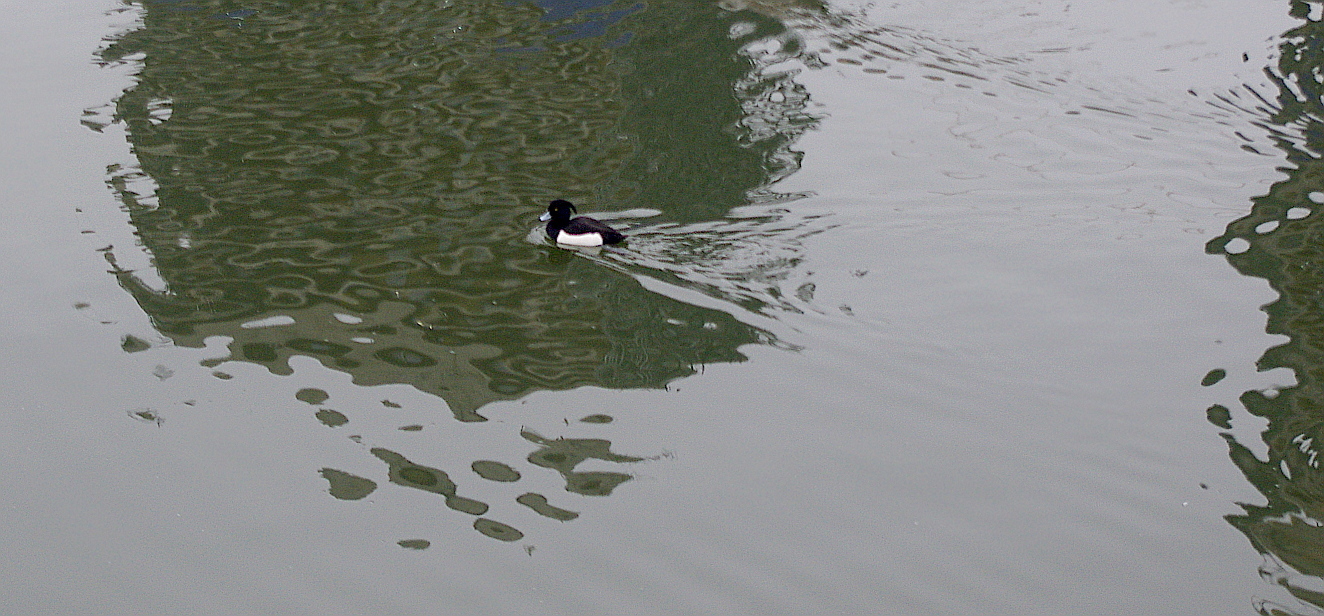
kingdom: Animalia
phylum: Chordata
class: Aves
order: Anseriformes
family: Anatidae
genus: Aythya
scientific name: Aythya fuligula
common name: Tufted duck
